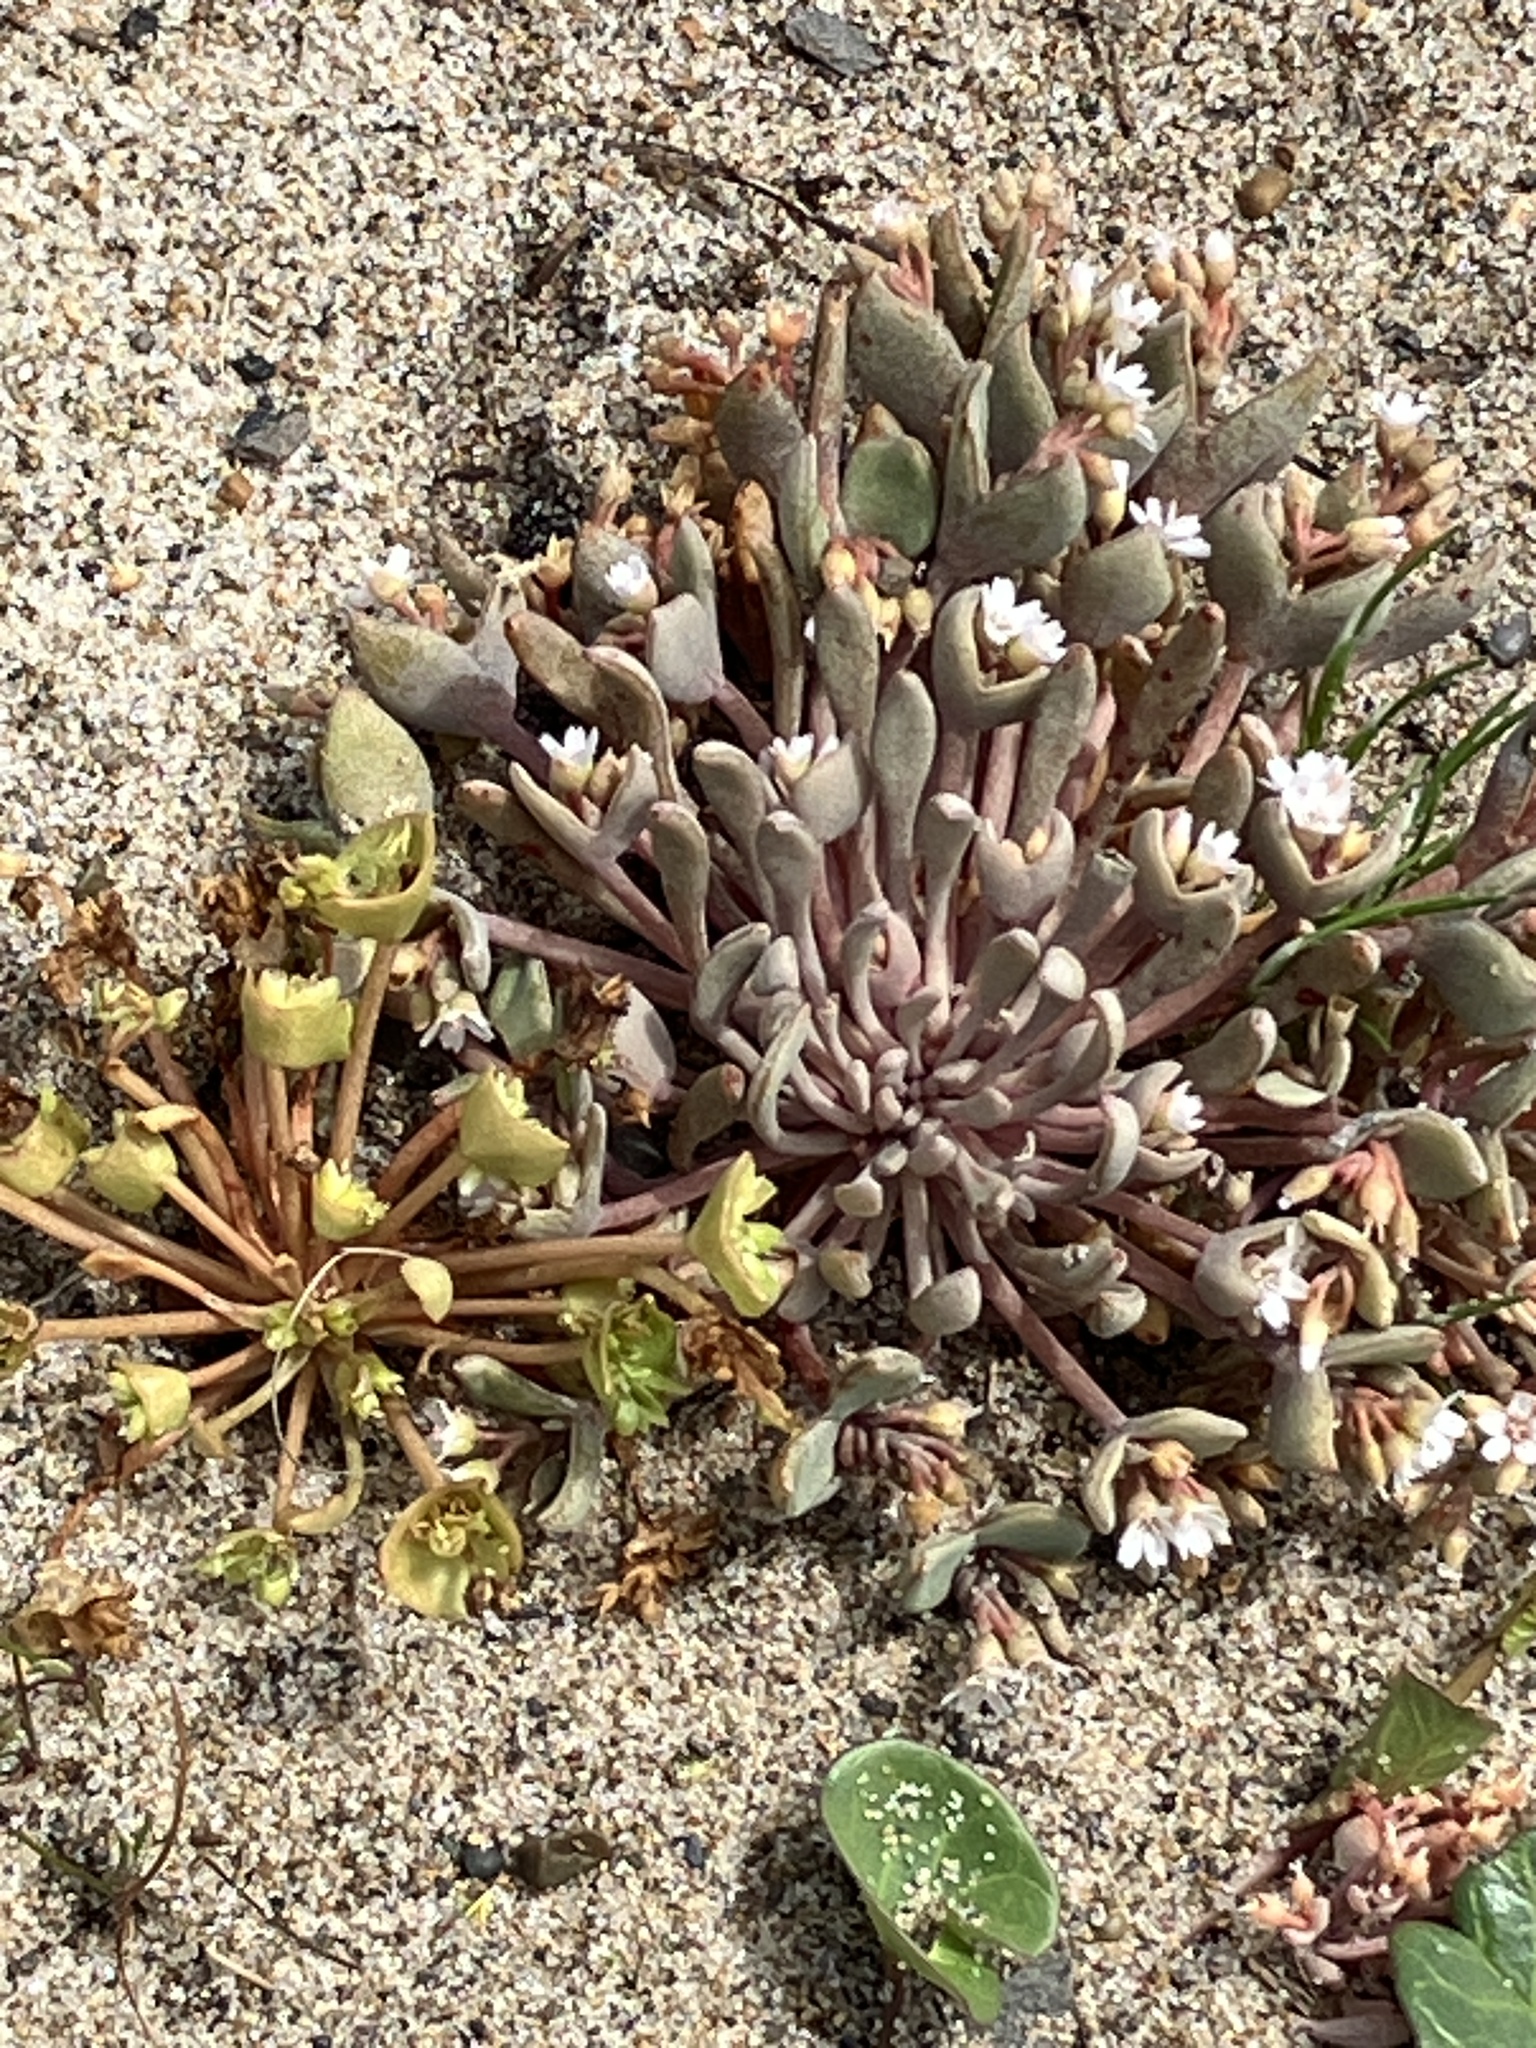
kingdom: Plantae
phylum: Tracheophyta
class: Magnoliopsida
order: Caryophyllales
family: Montiaceae
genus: Claytonia
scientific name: Claytonia exigua
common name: Pale spring beauty
